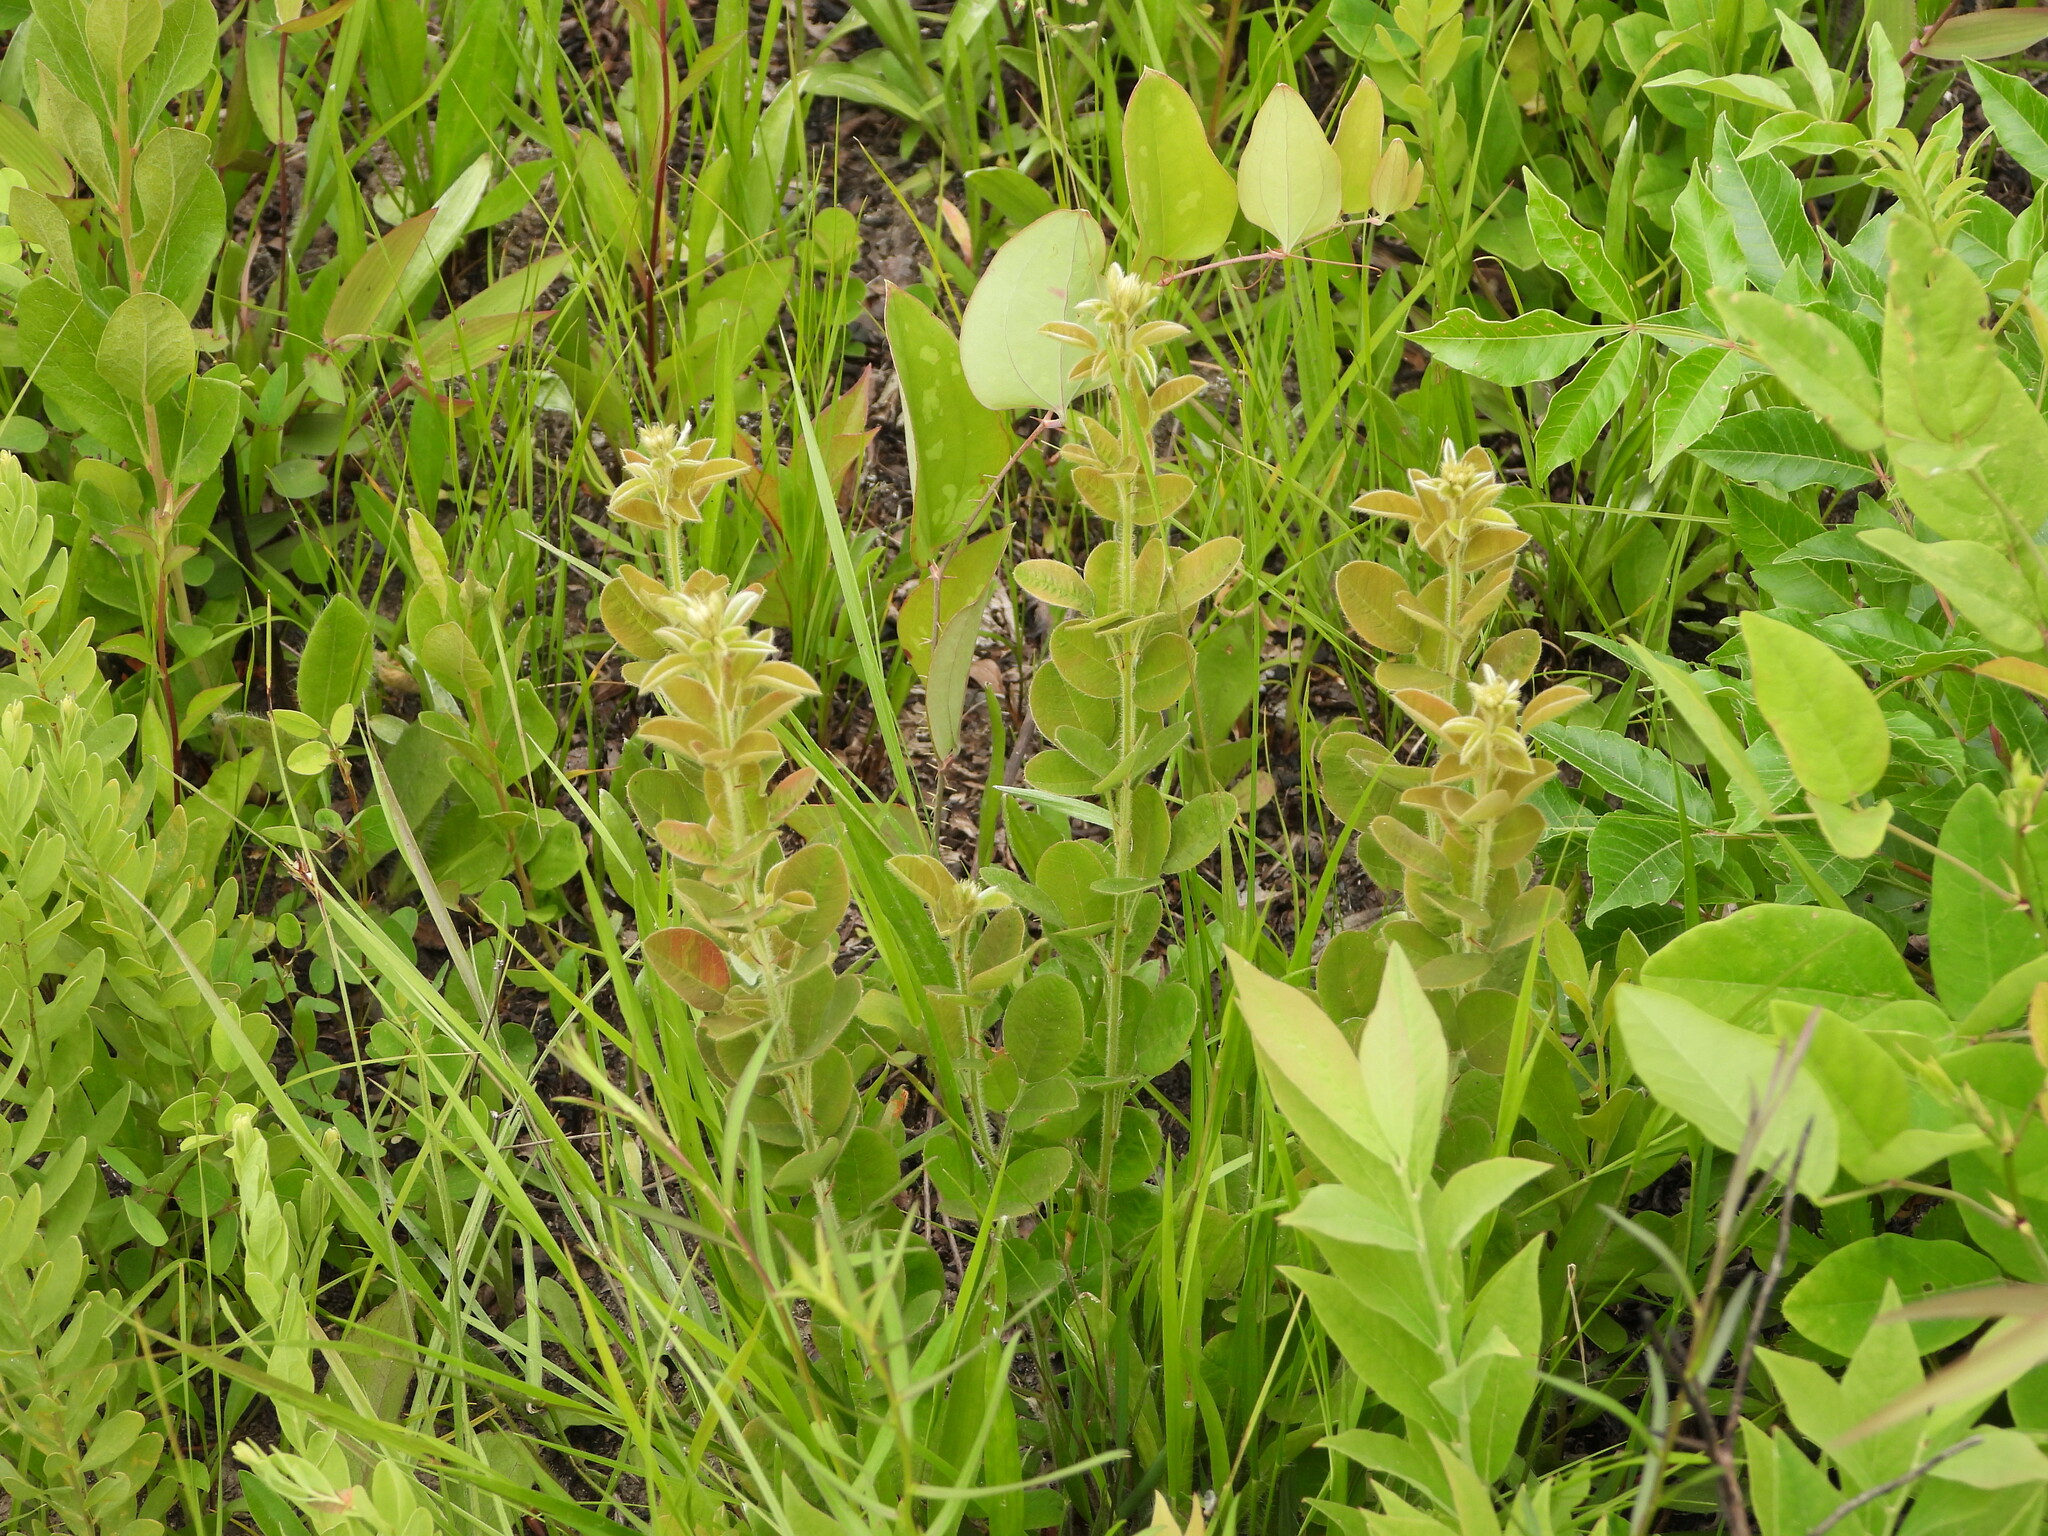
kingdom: Plantae
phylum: Tracheophyta
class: Magnoliopsida
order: Fabales
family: Fabaceae
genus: Lespedeza
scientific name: Lespedeza hirta
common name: Hairy lespedeza
